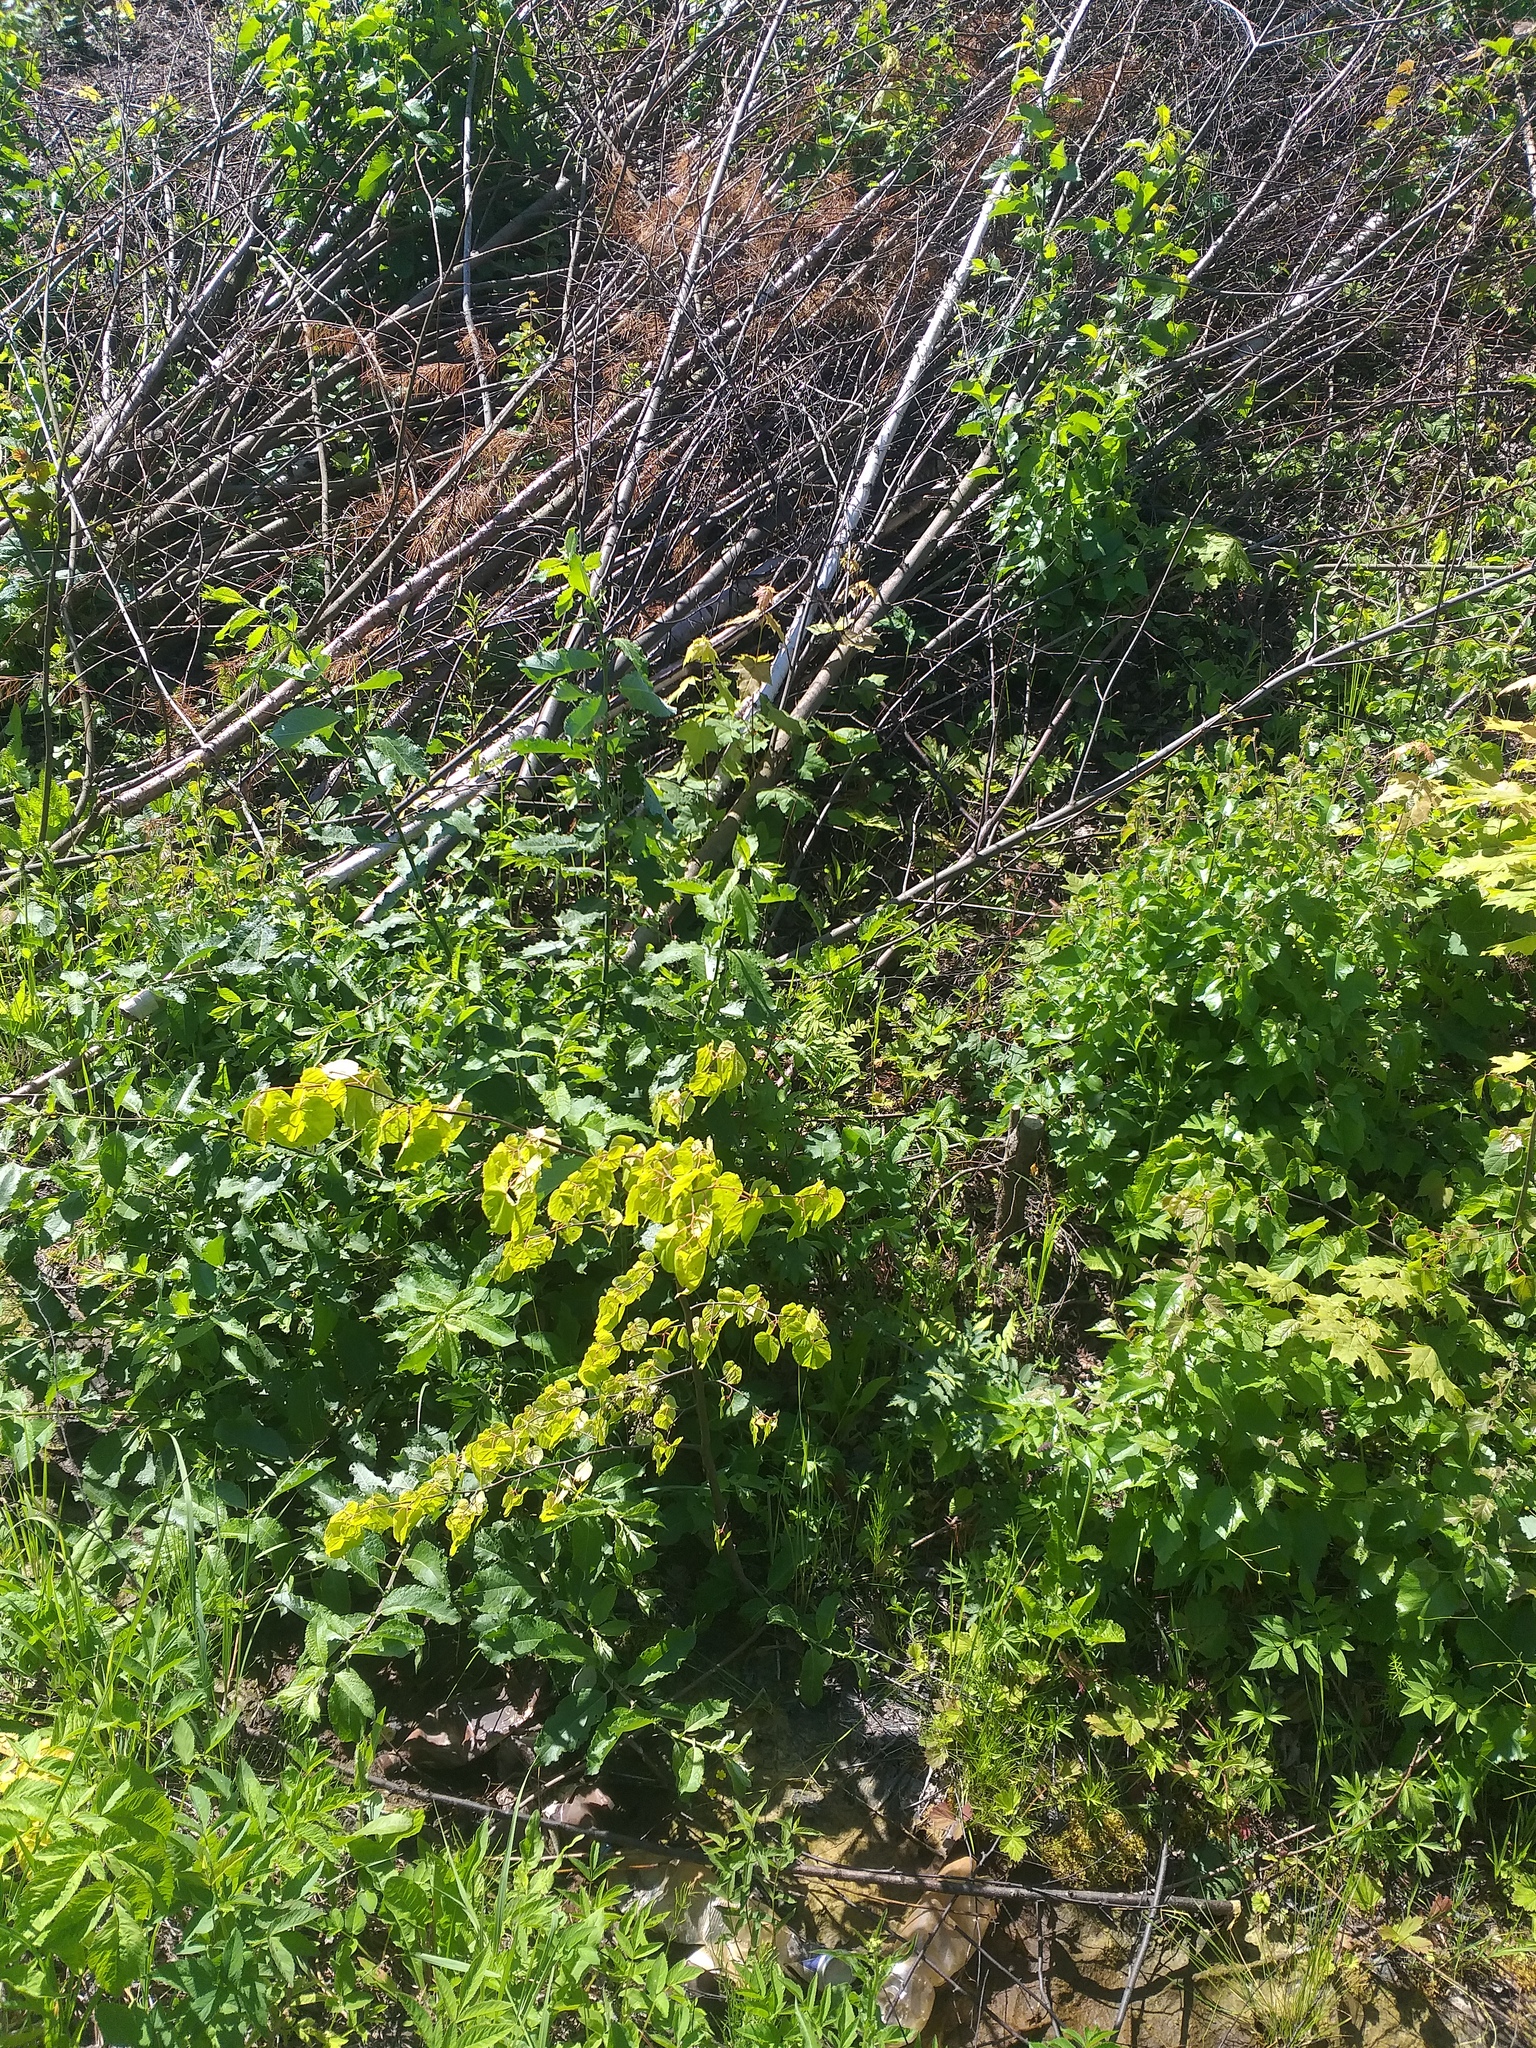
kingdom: Plantae
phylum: Tracheophyta
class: Magnoliopsida
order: Malvales
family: Malvaceae
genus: Tilia
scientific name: Tilia cordata
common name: Small-leaved lime
